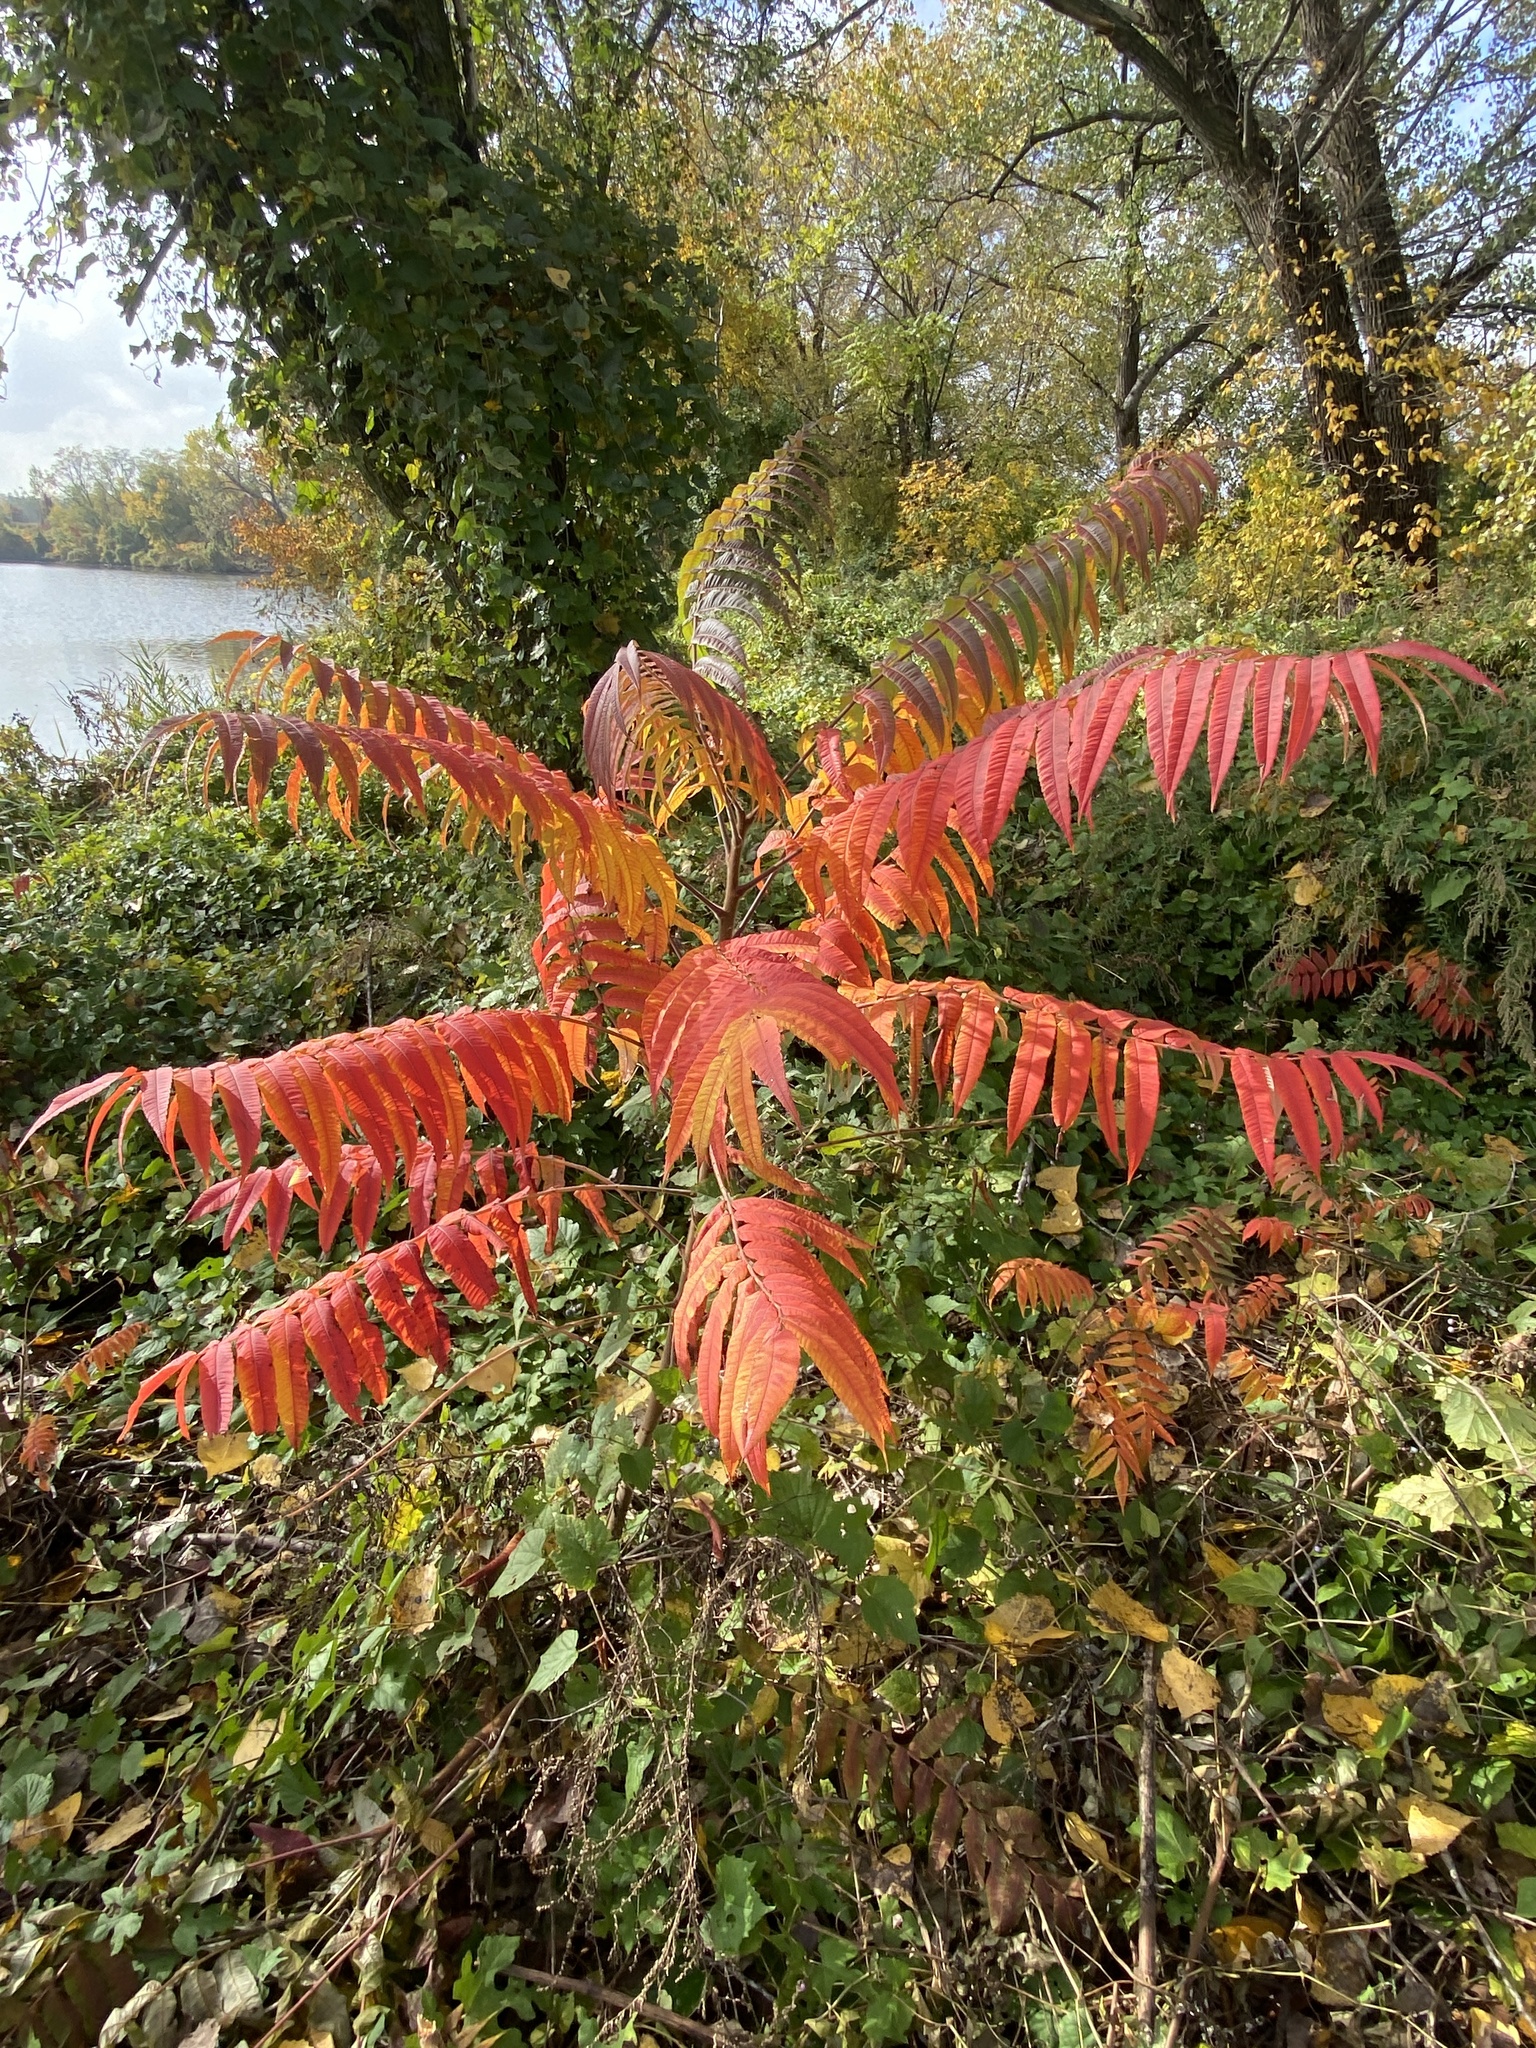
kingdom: Plantae
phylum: Tracheophyta
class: Magnoliopsida
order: Sapindales
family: Anacardiaceae
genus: Rhus
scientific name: Rhus typhina
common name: Staghorn sumac
